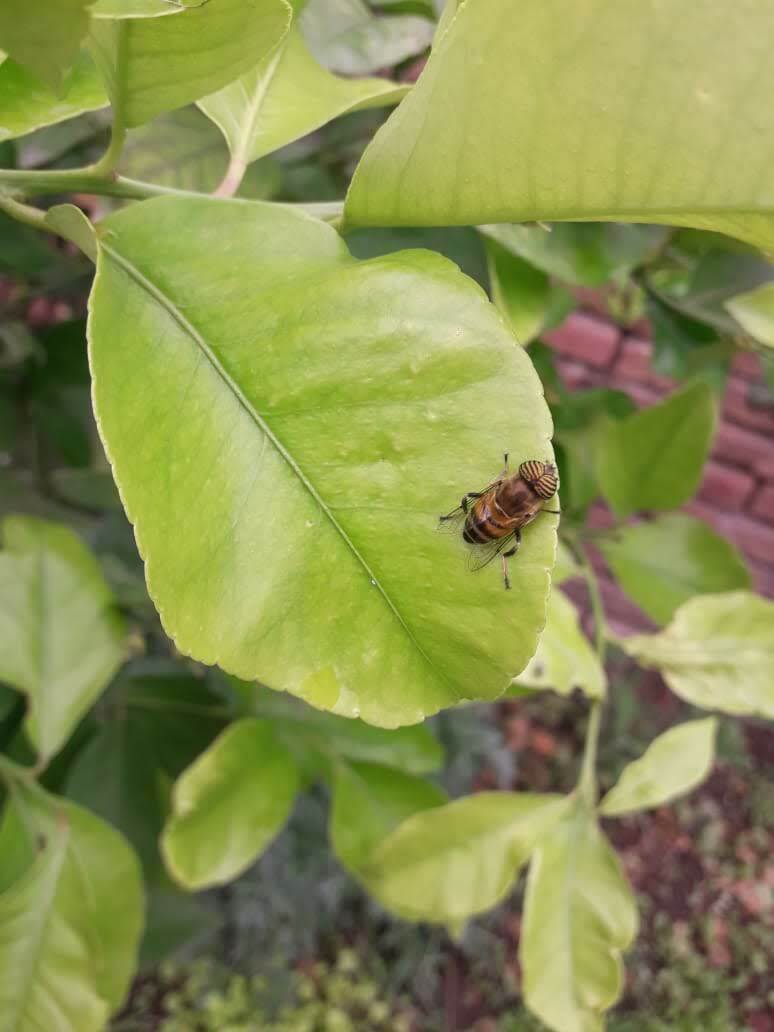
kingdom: Animalia
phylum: Arthropoda
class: Insecta
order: Diptera
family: Syrphidae
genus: Eristalinus
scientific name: Eristalinus taeniops
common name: Syrphid fly
